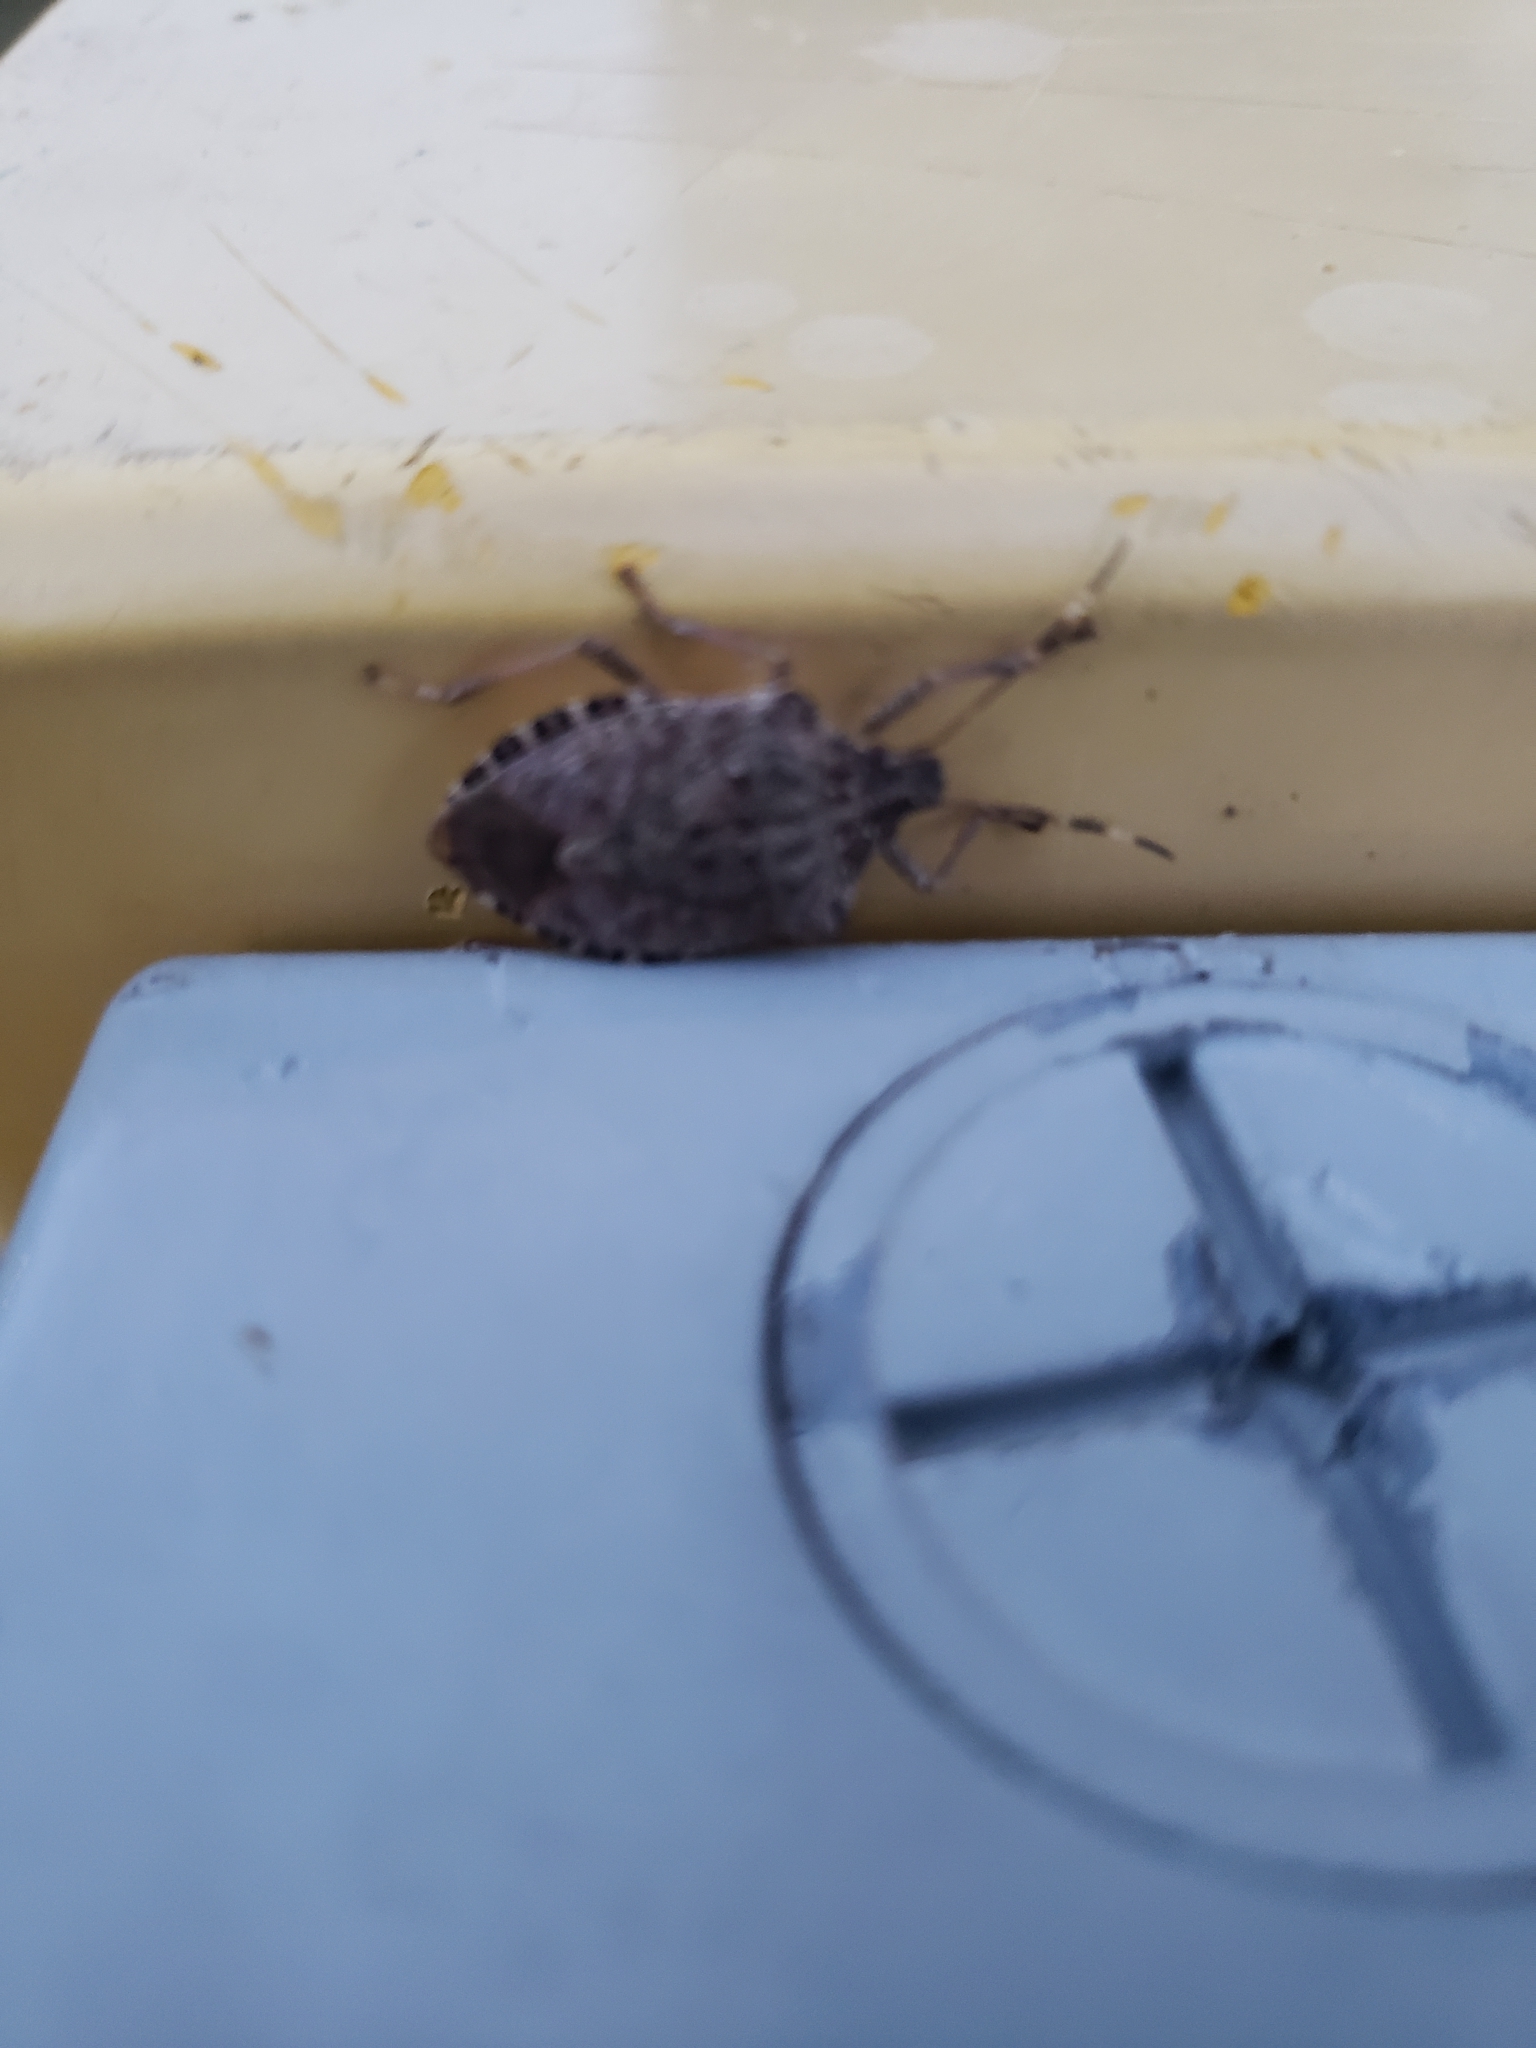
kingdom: Animalia
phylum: Arthropoda
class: Insecta
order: Hemiptera
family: Pentatomidae
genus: Halyomorpha
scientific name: Halyomorpha halys
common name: Brown marmorated stink bug
